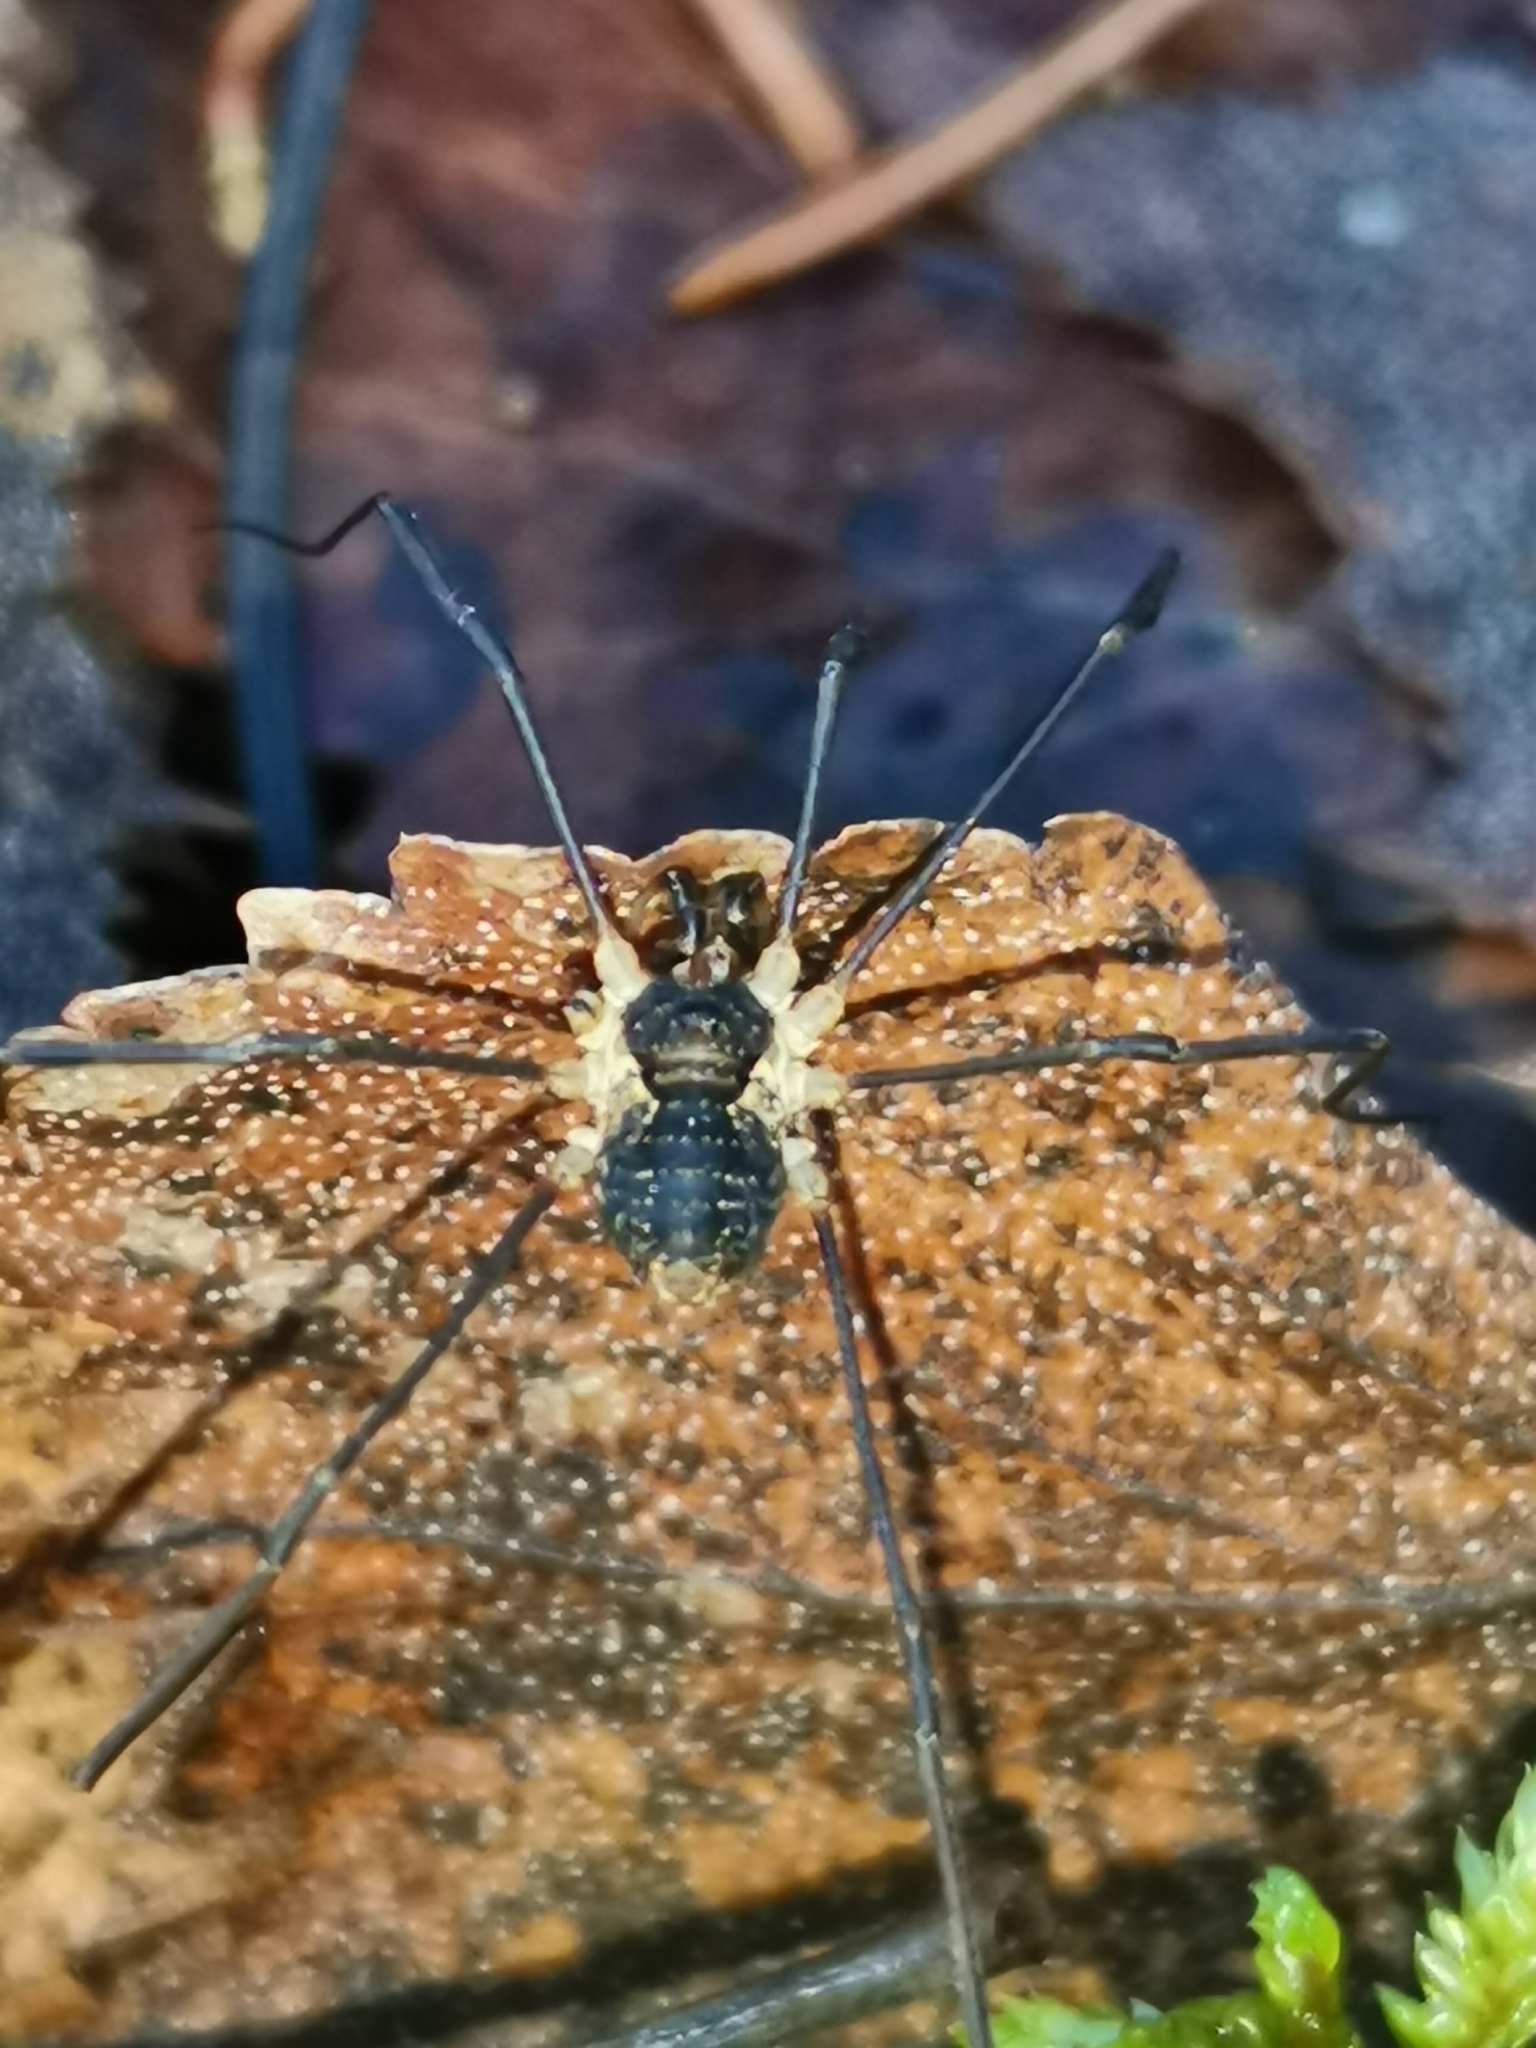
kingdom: Animalia
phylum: Arthropoda
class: Arachnida
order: Opiliones
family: Phalangiidae
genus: Mitopus
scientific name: Mitopus morio
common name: Saddleback harvestman
